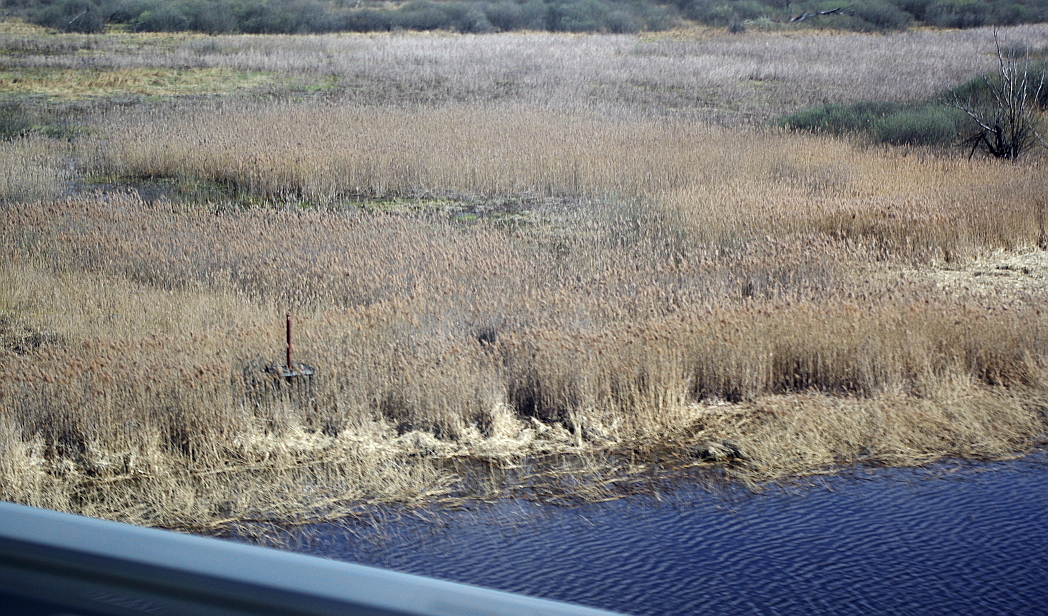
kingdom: Plantae
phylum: Tracheophyta
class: Liliopsida
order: Poales
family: Poaceae
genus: Phragmites
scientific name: Phragmites australis
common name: Common reed
